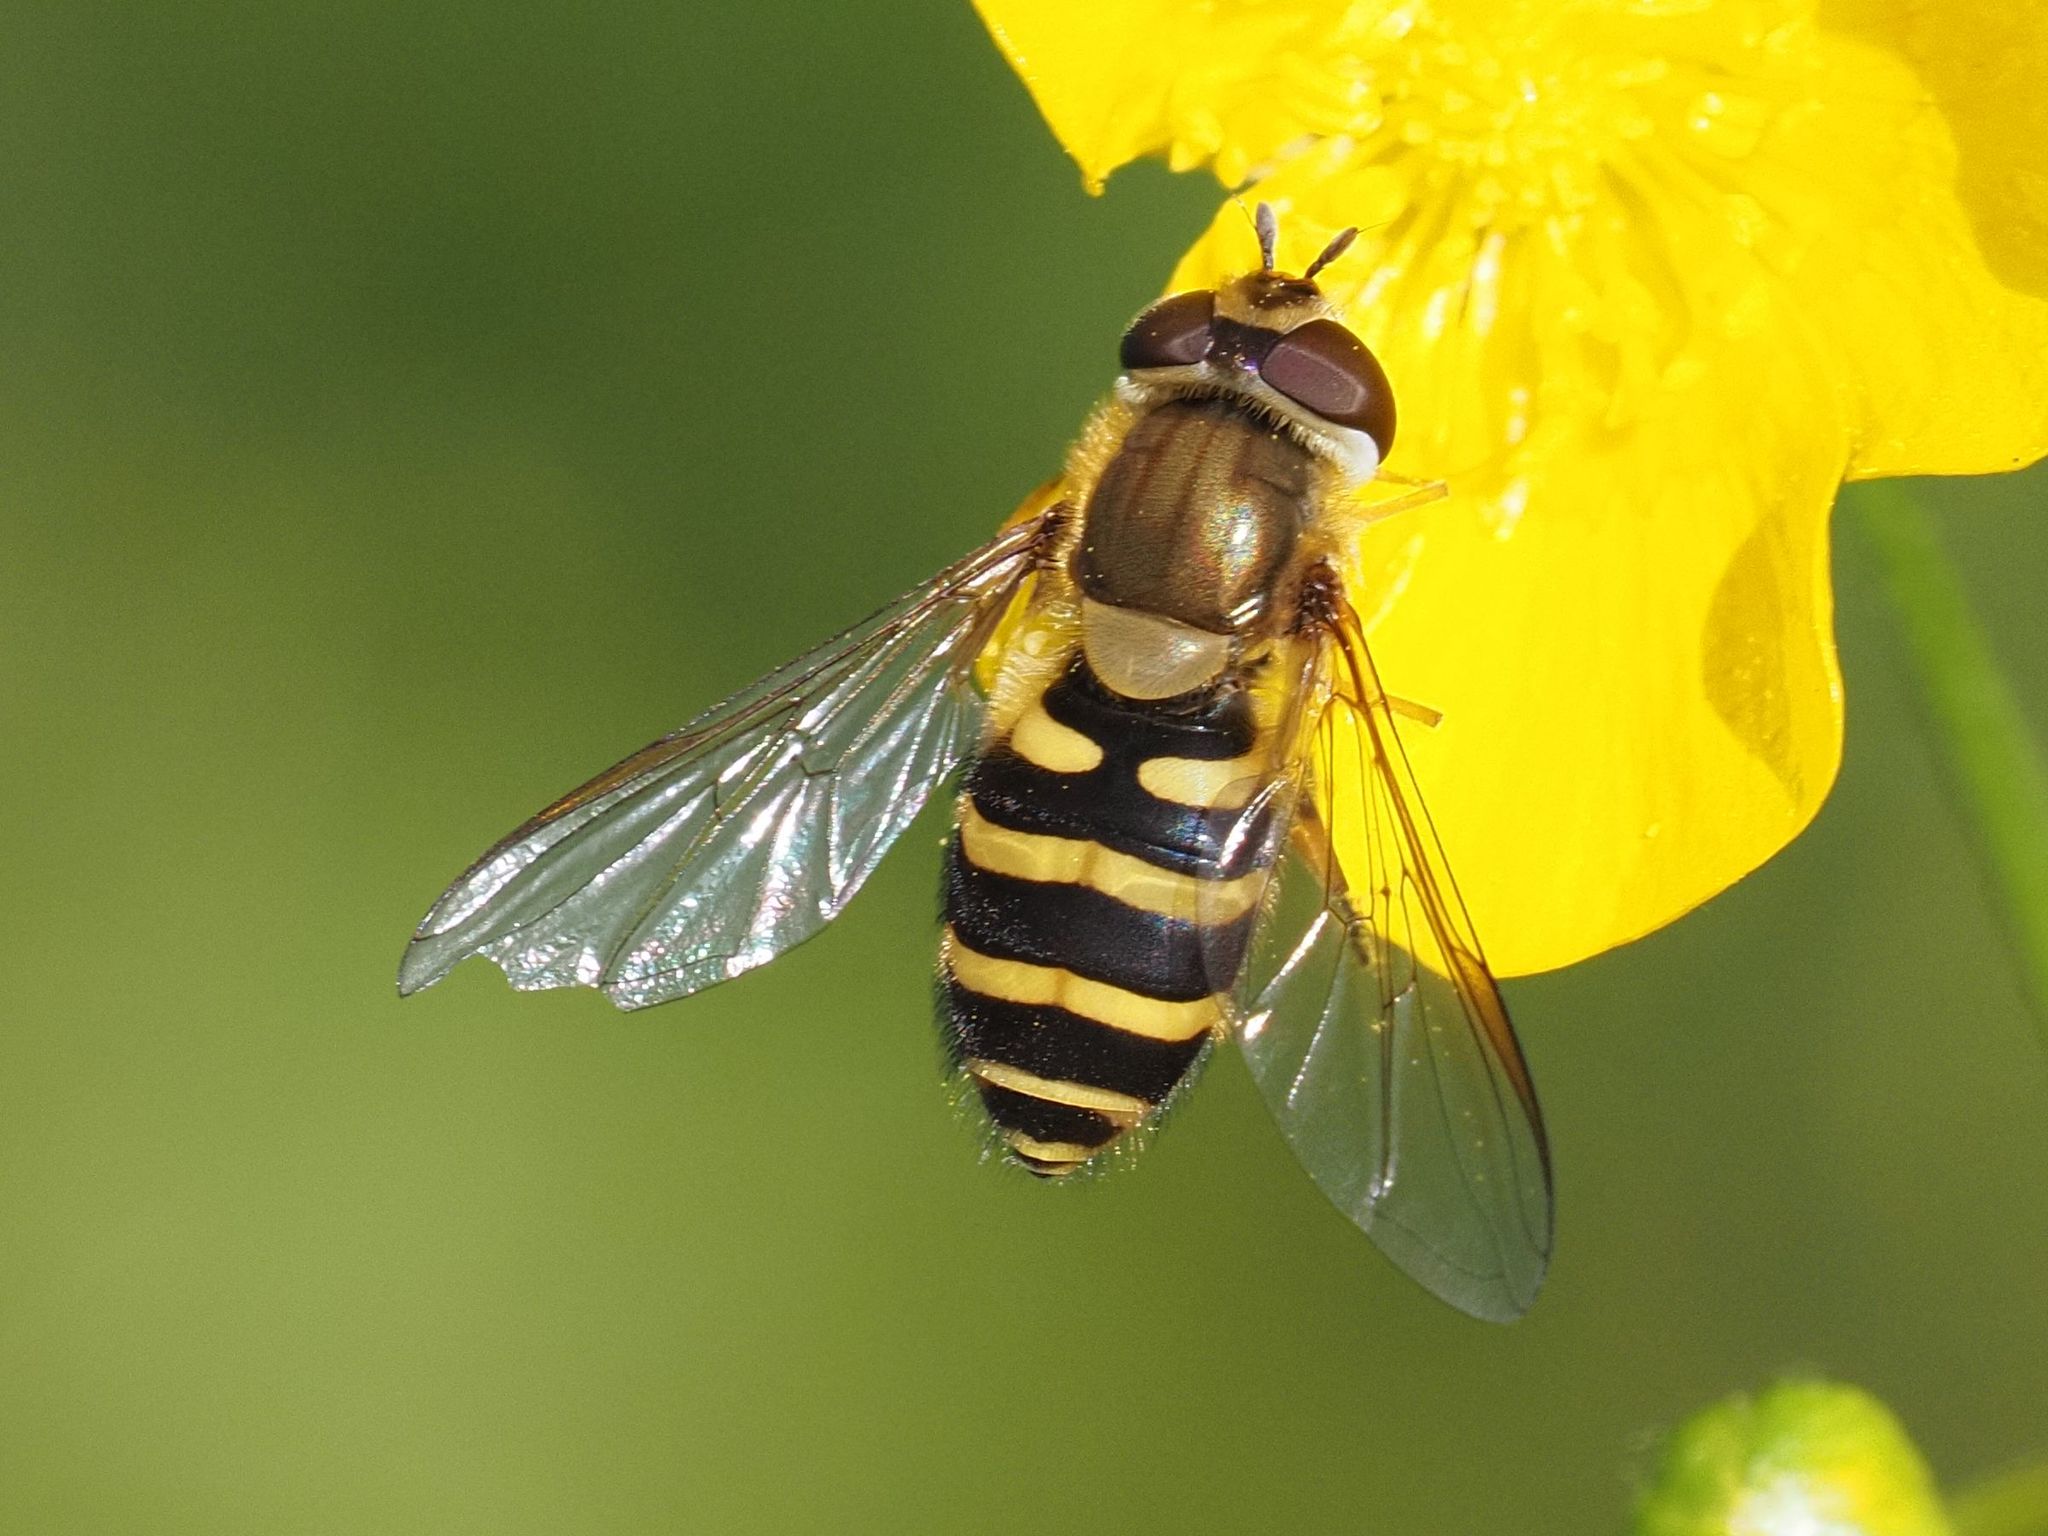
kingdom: Animalia
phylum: Arthropoda
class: Insecta
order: Diptera
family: Syrphidae
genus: Syrphus
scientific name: Syrphus torvus
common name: Hairy-eyed flower fly
